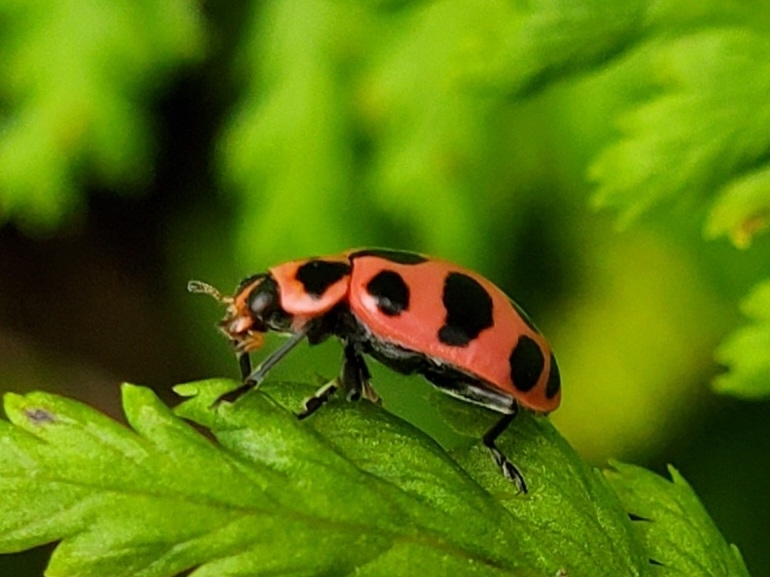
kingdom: Animalia
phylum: Arthropoda
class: Insecta
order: Coleoptera
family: Coccinellidae
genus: Coleomegilla
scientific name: Coleomegilla maculata
